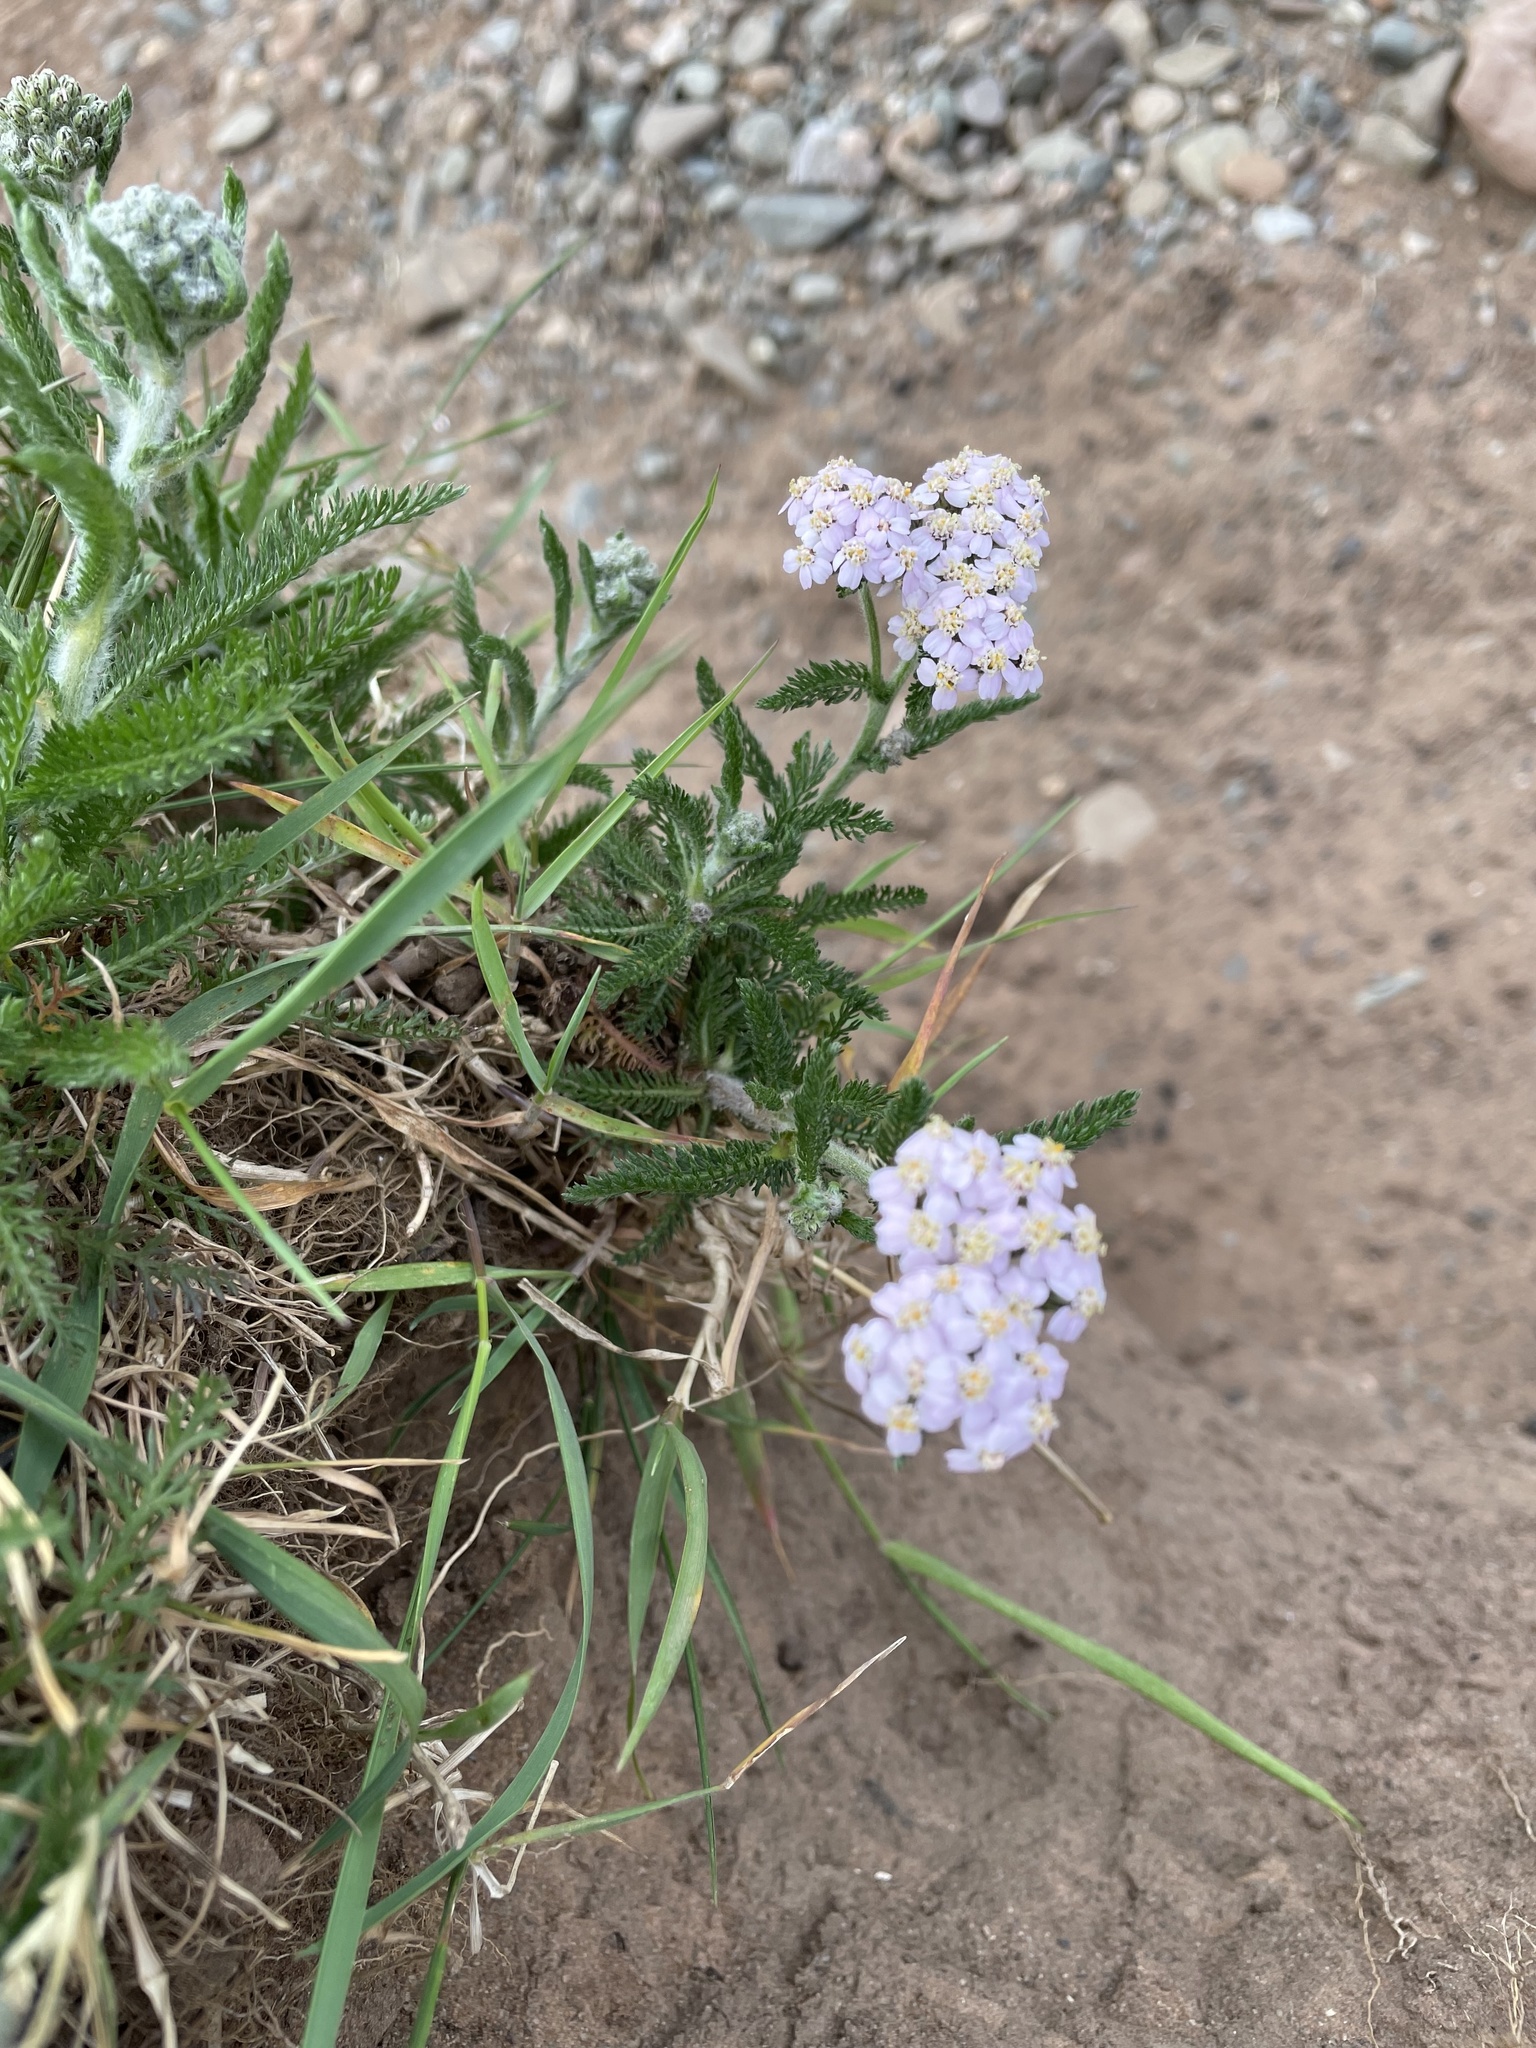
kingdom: Plantae
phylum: Tracheophyta
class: Magnoliopsida
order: Asterales
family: Asteraceae
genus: Achillea
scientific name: Achillea millefolium
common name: Yarrow
